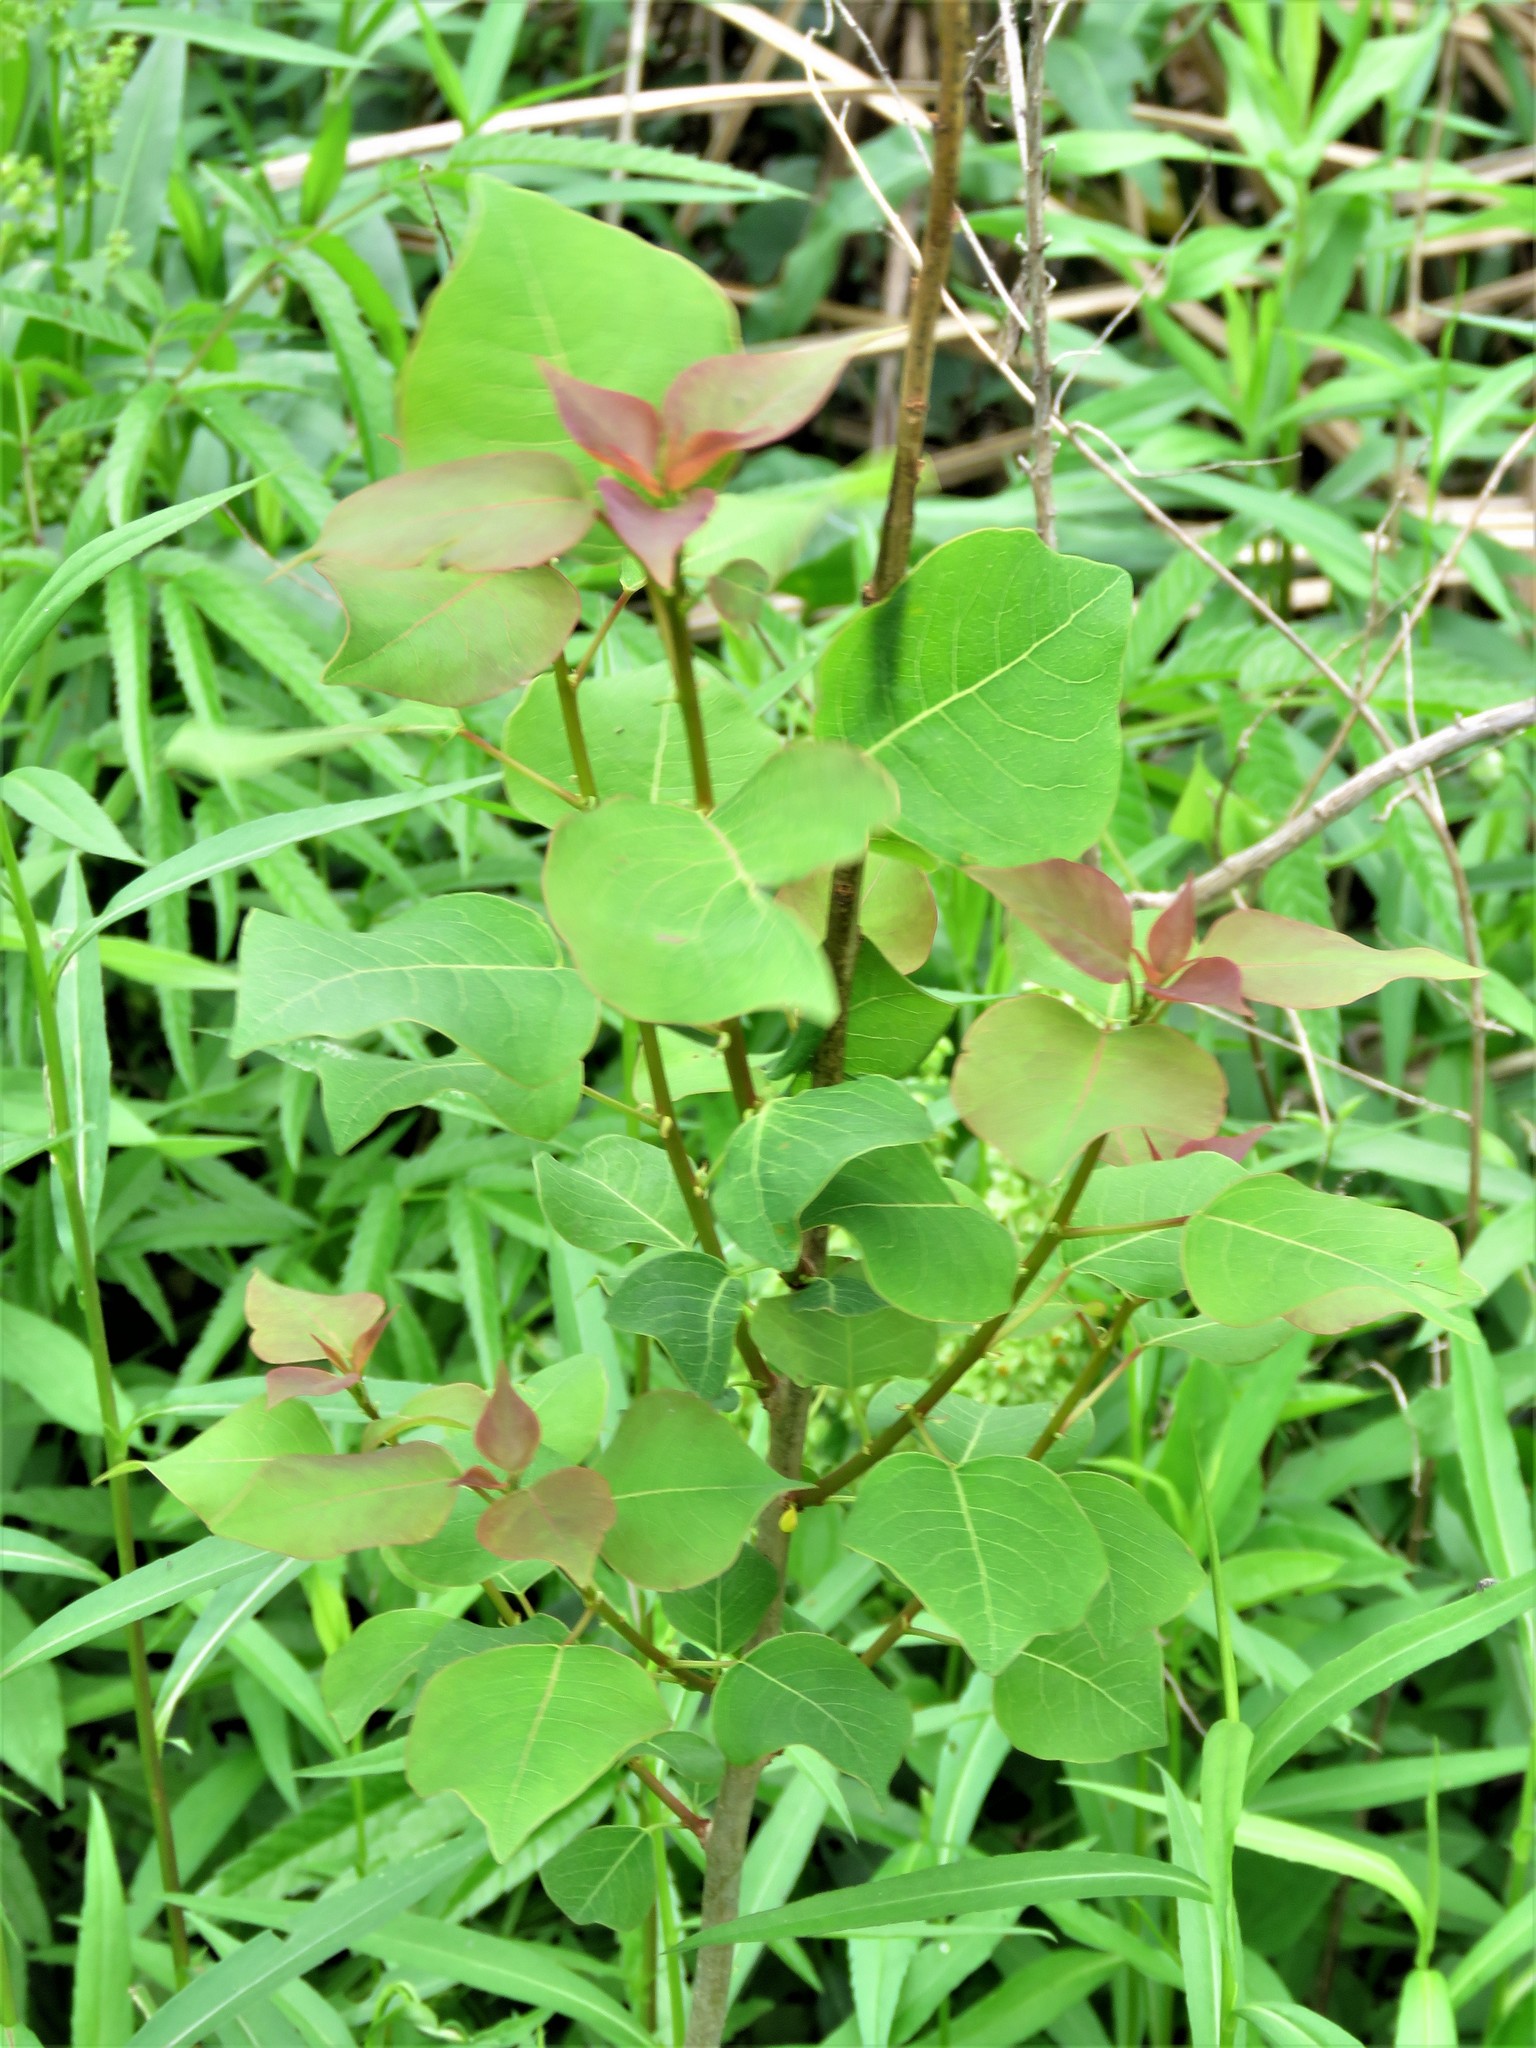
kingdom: Plantae
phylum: Tracheophyta
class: Magnoliopsida
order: Malpighiales
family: Euphorbiaceae
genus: Triadica
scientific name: Triadica sebifera
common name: Chinese tallow
